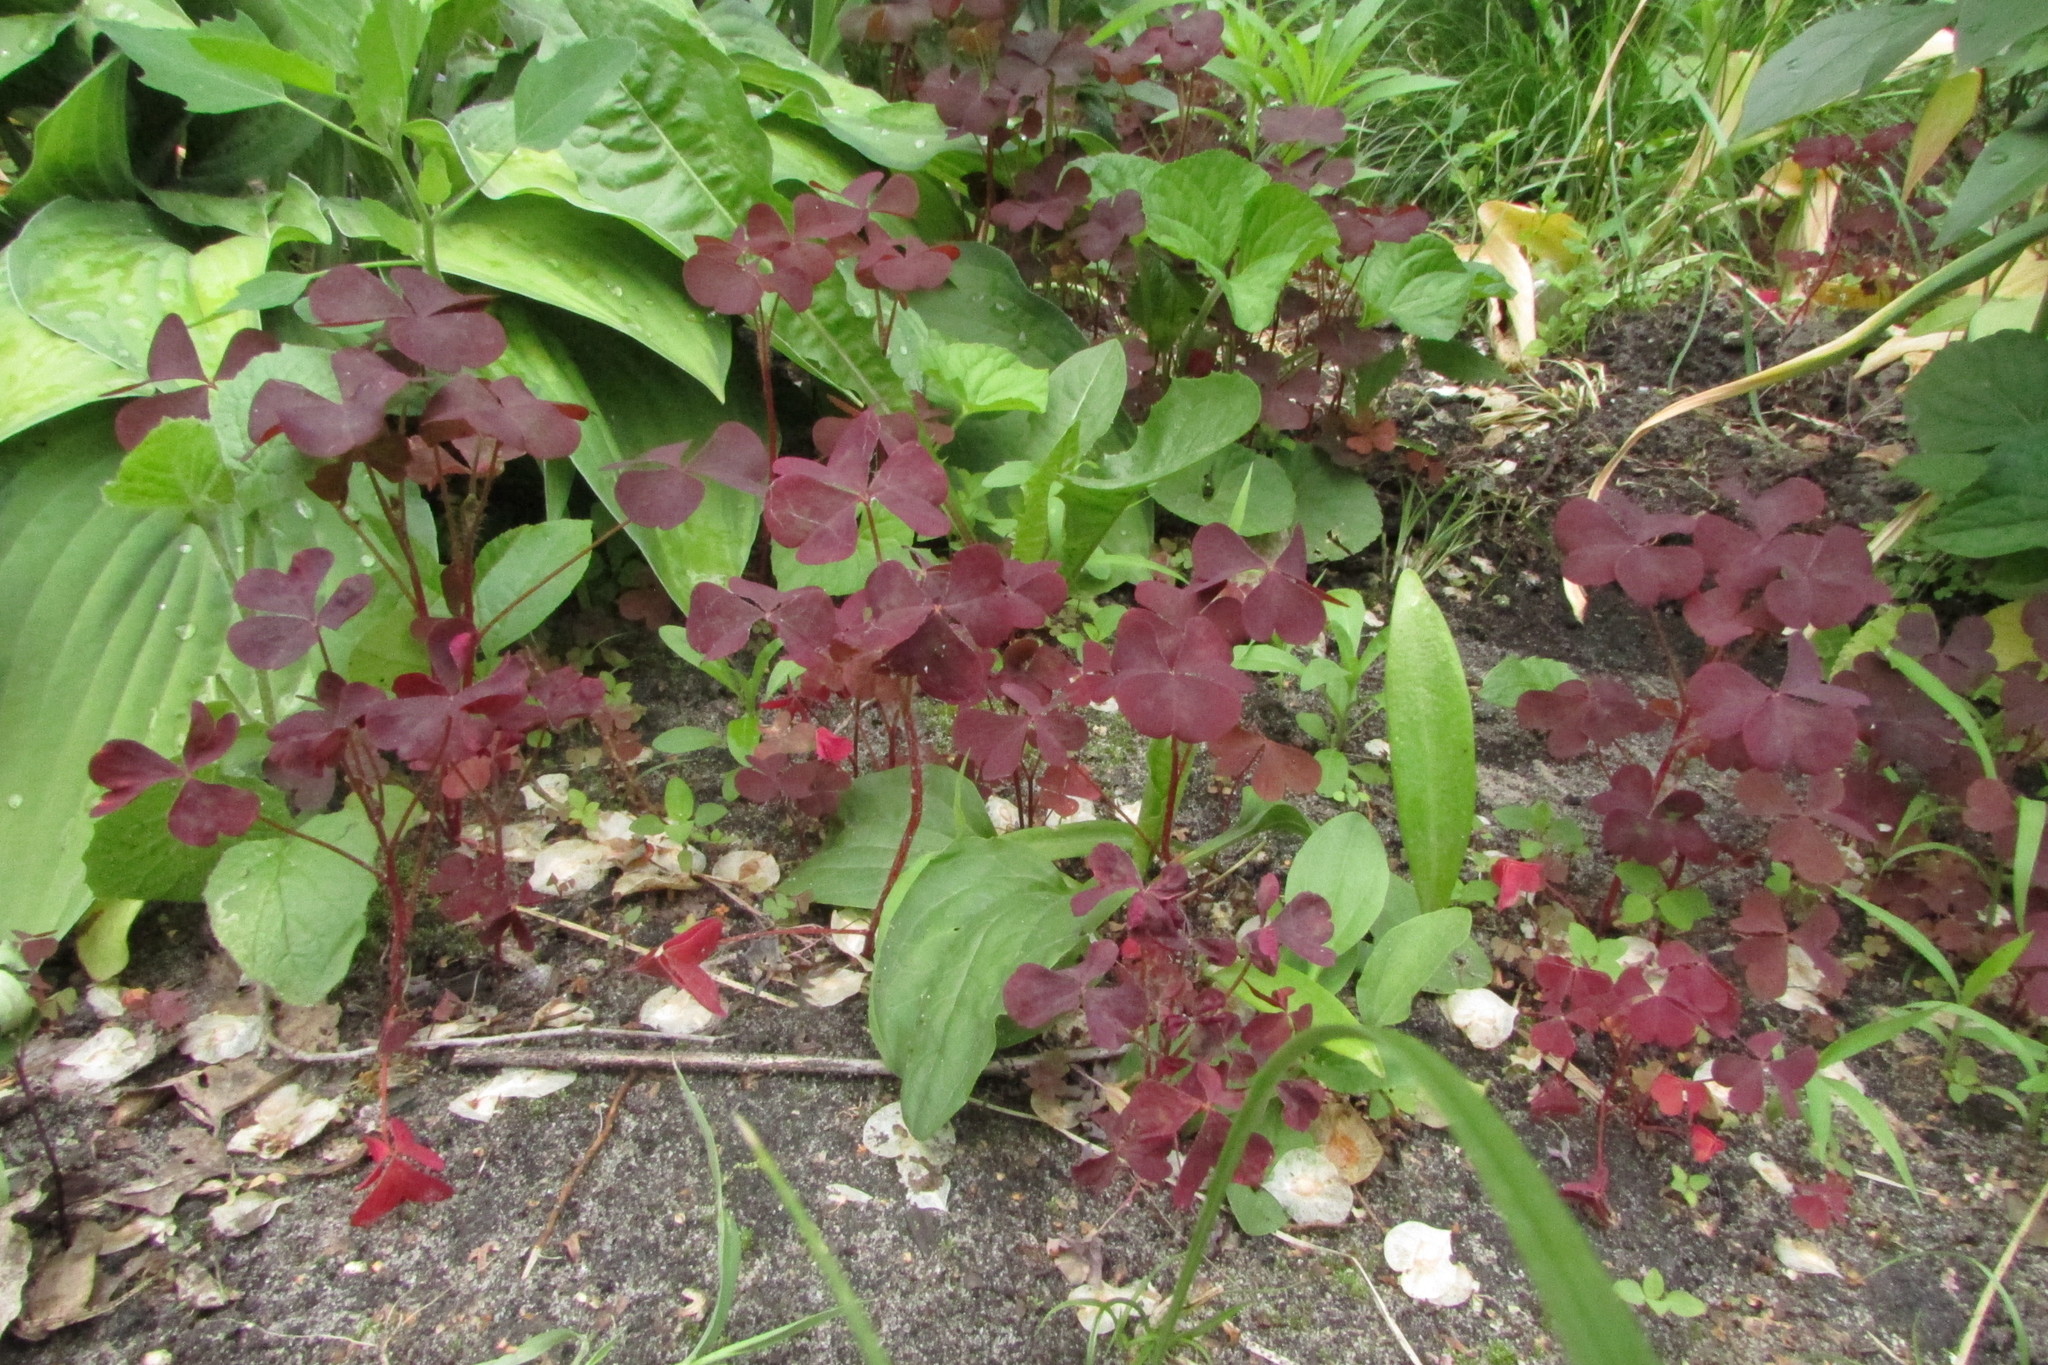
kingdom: Plantae
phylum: Tracheophyta
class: Magnoliopsida
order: Oxalidales
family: Oxalidaceae
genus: Oxalis
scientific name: Oxalis stricta
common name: Upright yellow-sorrel
